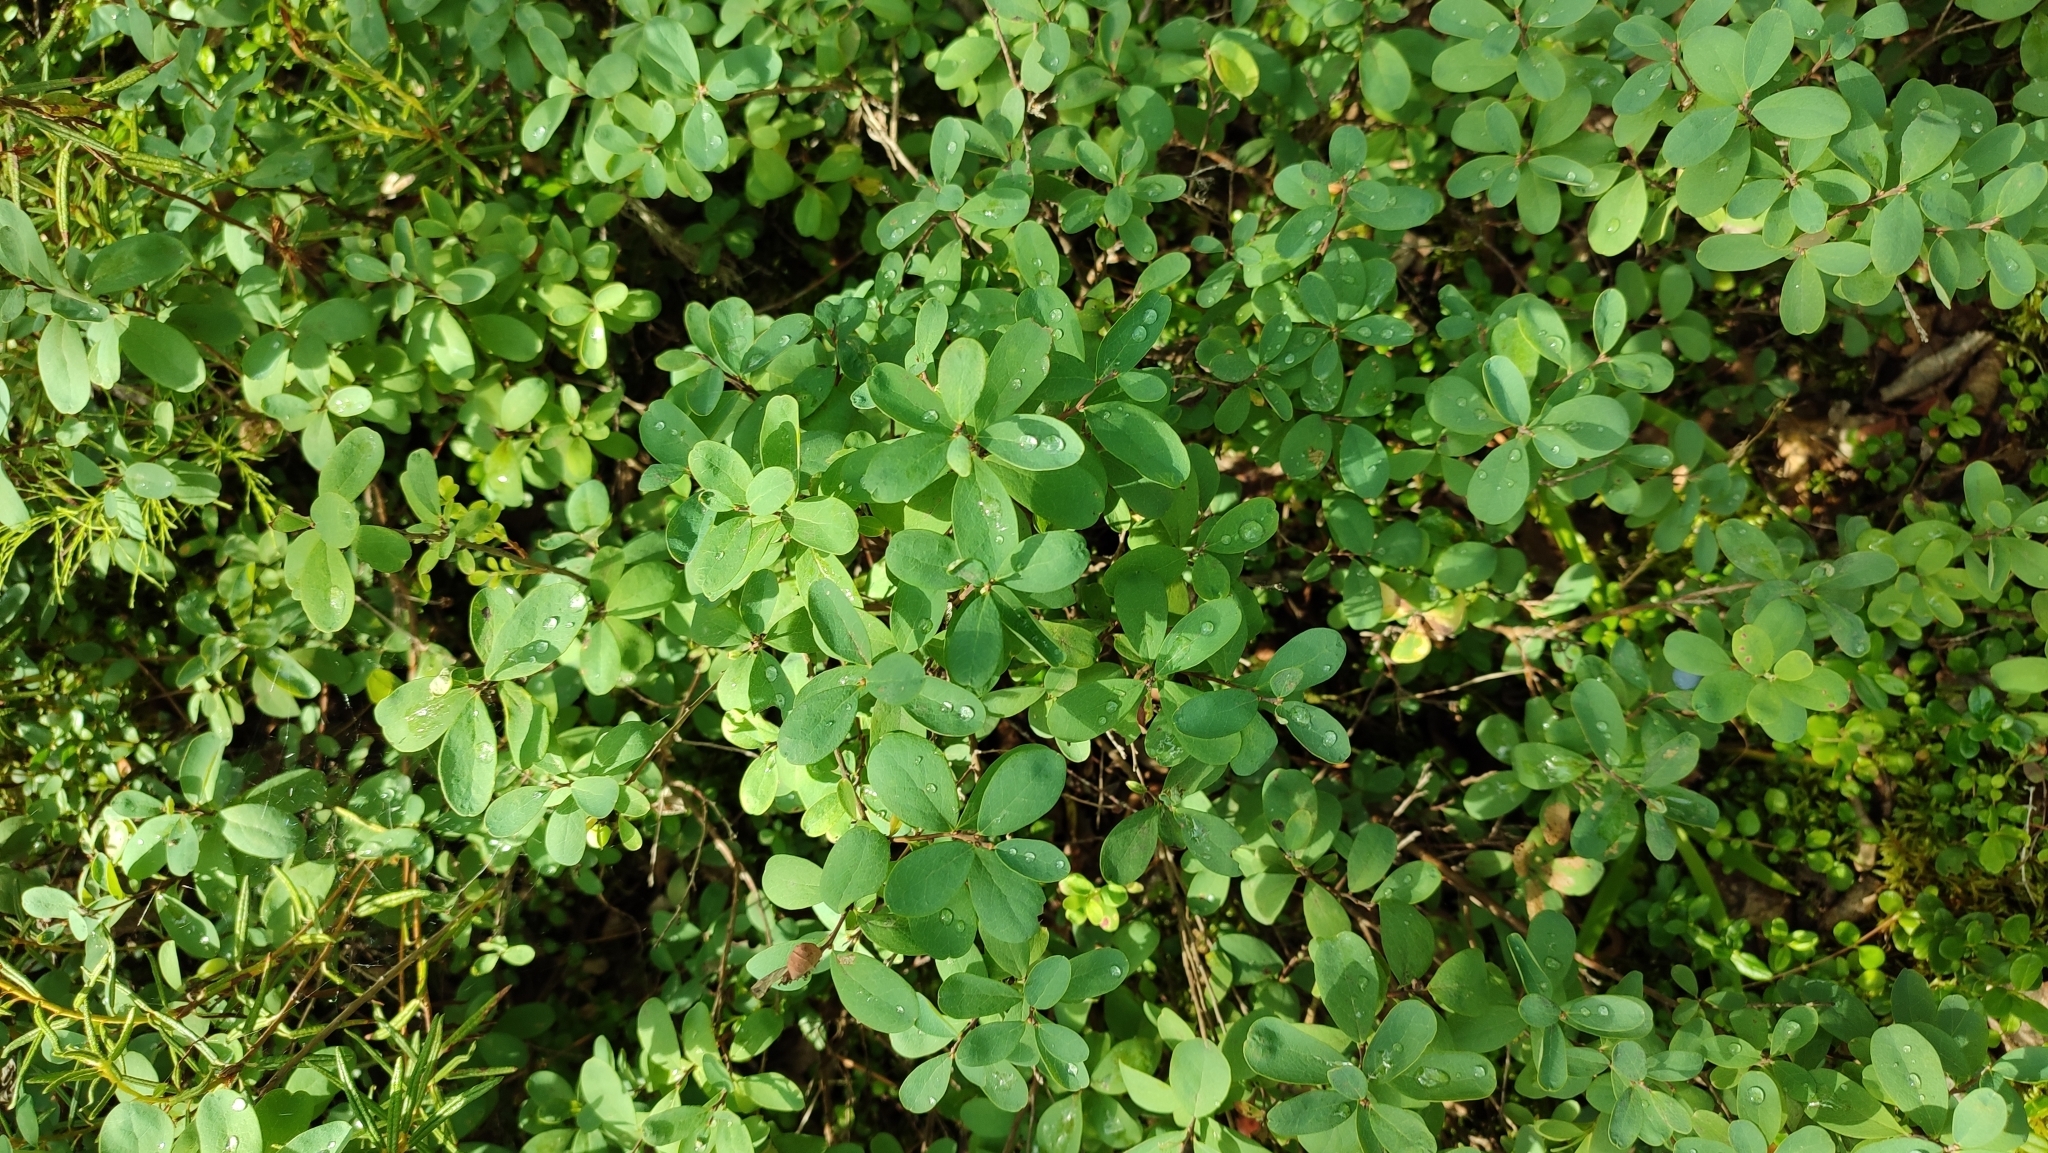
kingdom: Plantae
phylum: Tracheophyta
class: Magnoliopsida
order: Ericales
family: Ericaceae
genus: Vaccinium
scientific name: Vaccinium uliginosum
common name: Bog bilberry
